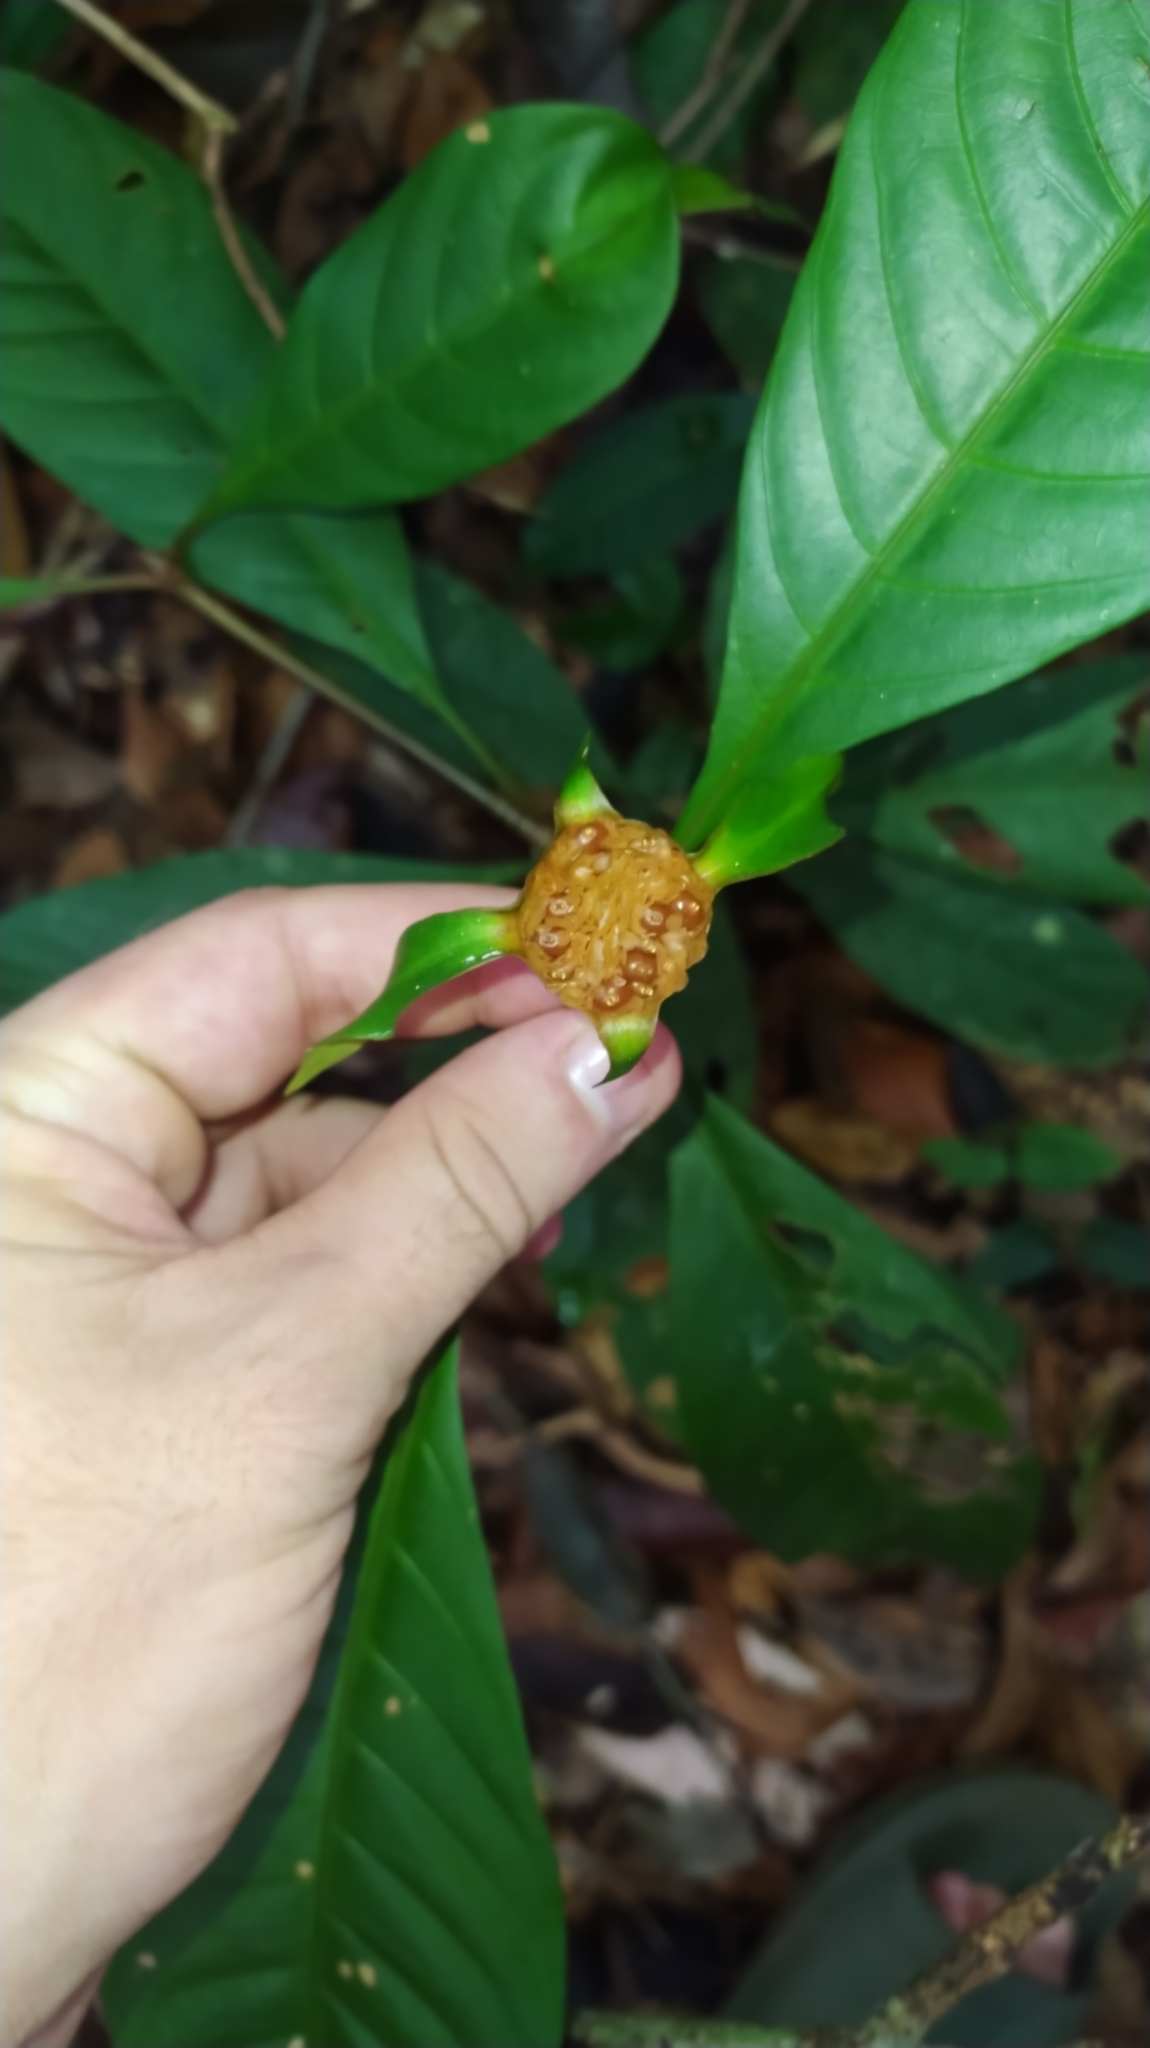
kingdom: Plantae
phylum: Tracheophyta
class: Magnoliopsida
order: Gentianales
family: Rubiaceae
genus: Carapichea
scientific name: Carapichea guianensis
